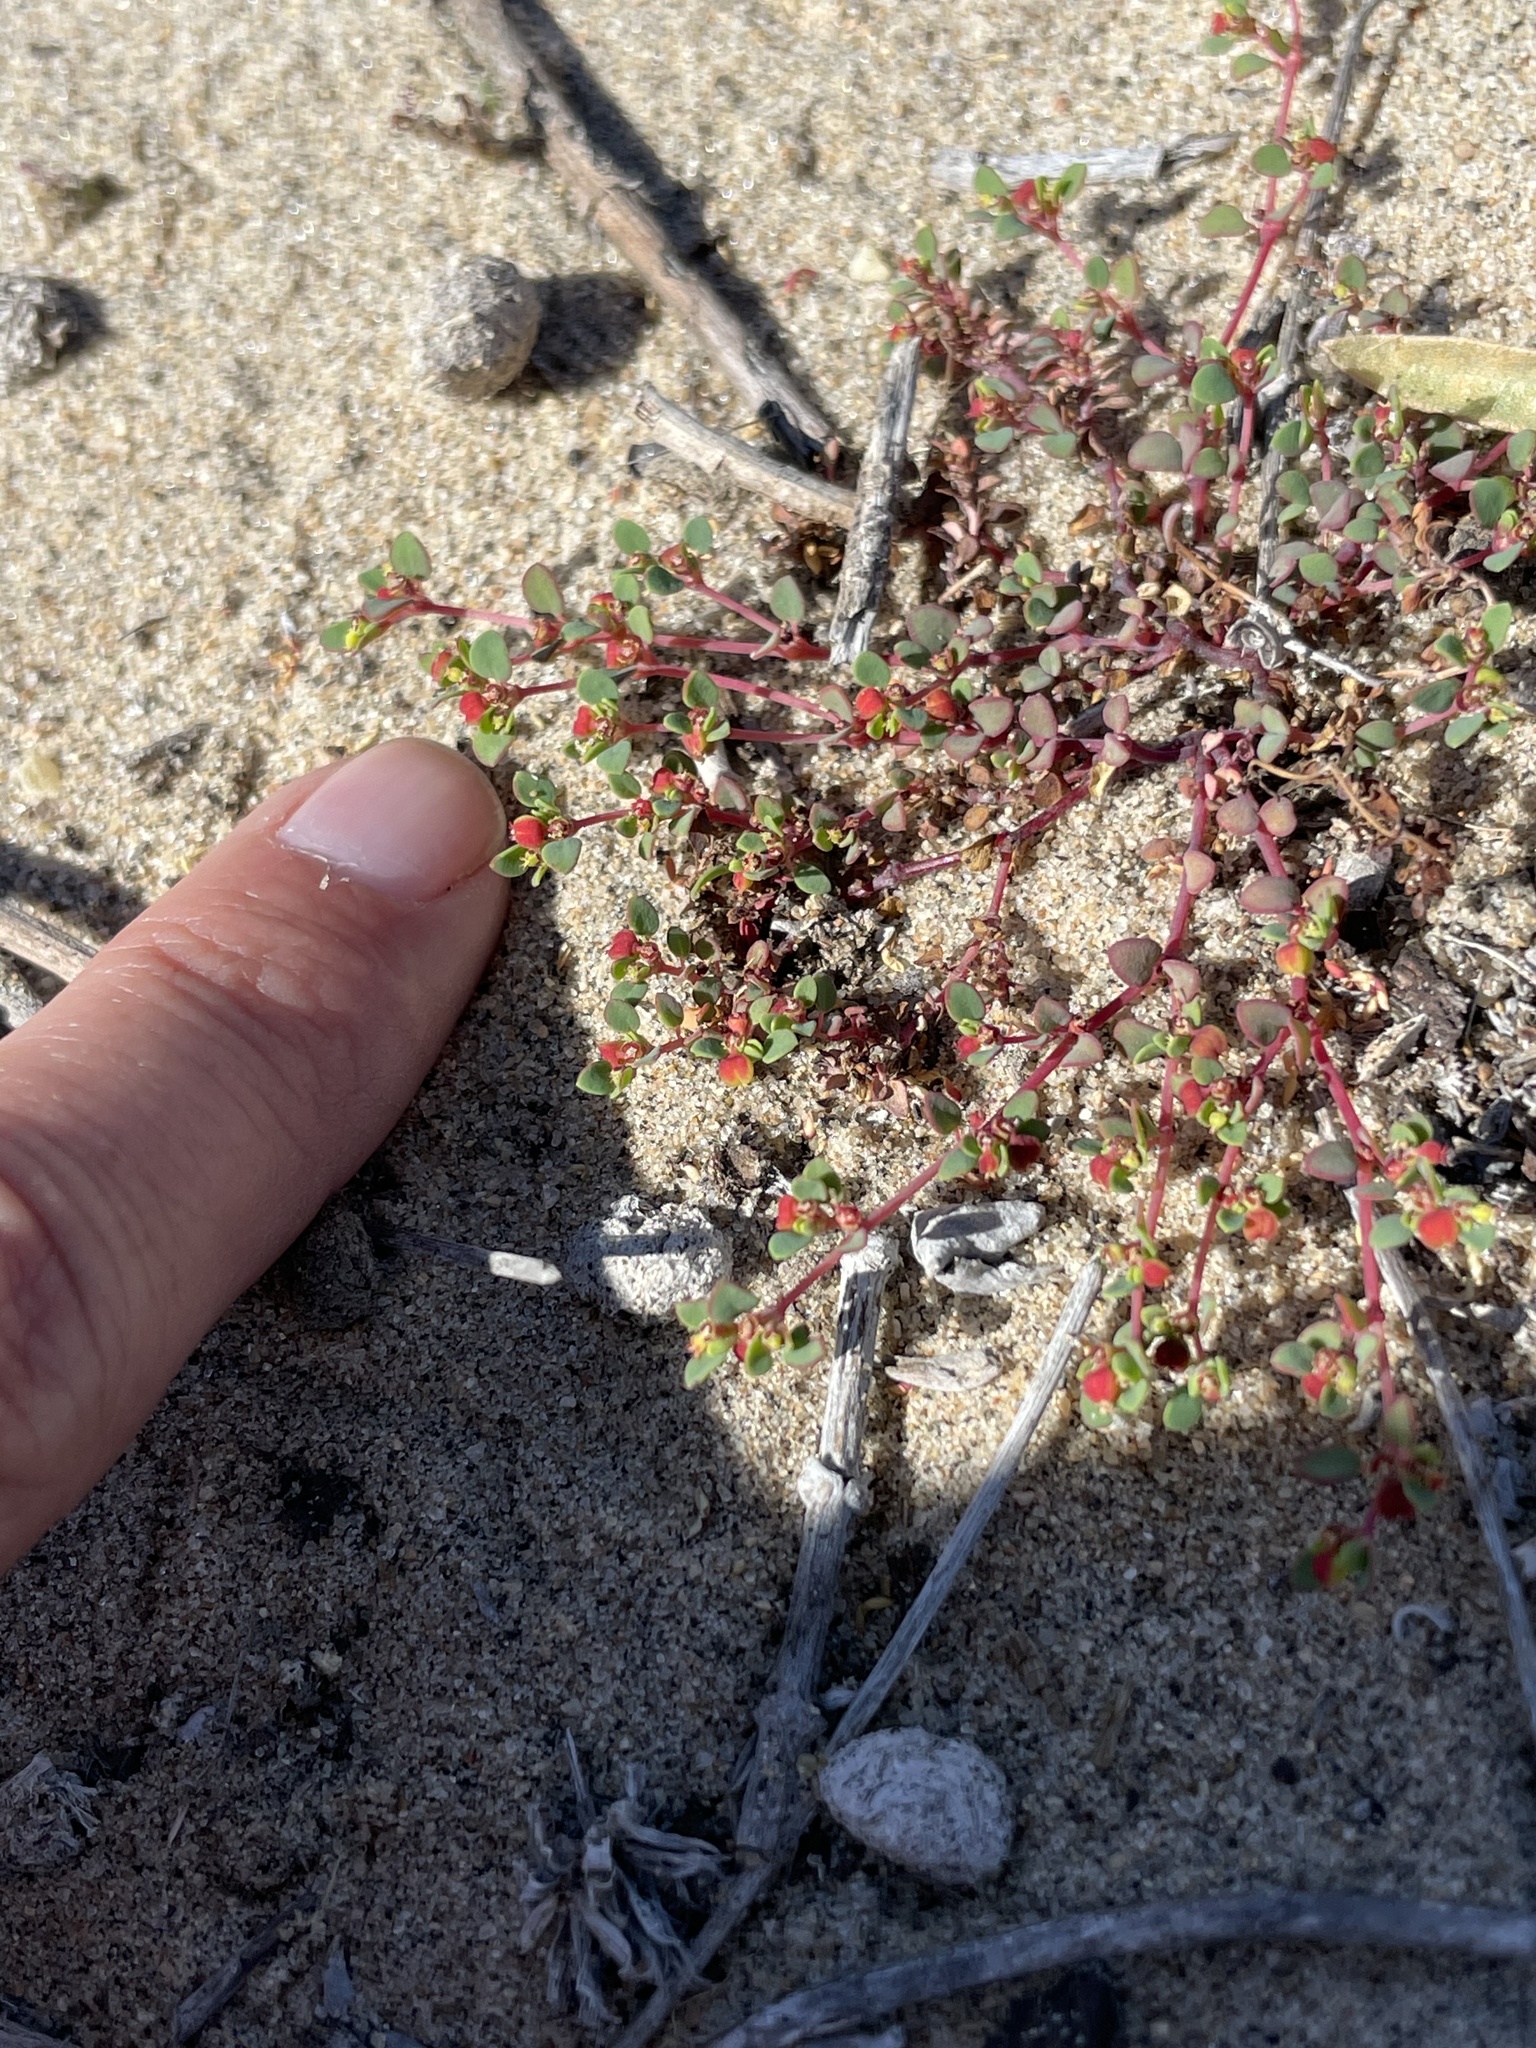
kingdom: Plantae
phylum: Tracheophyta
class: Magnoliopsida
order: Malpighiales
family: Euphorbiaceae
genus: Euphorbia
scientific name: Euphorbia pondii
